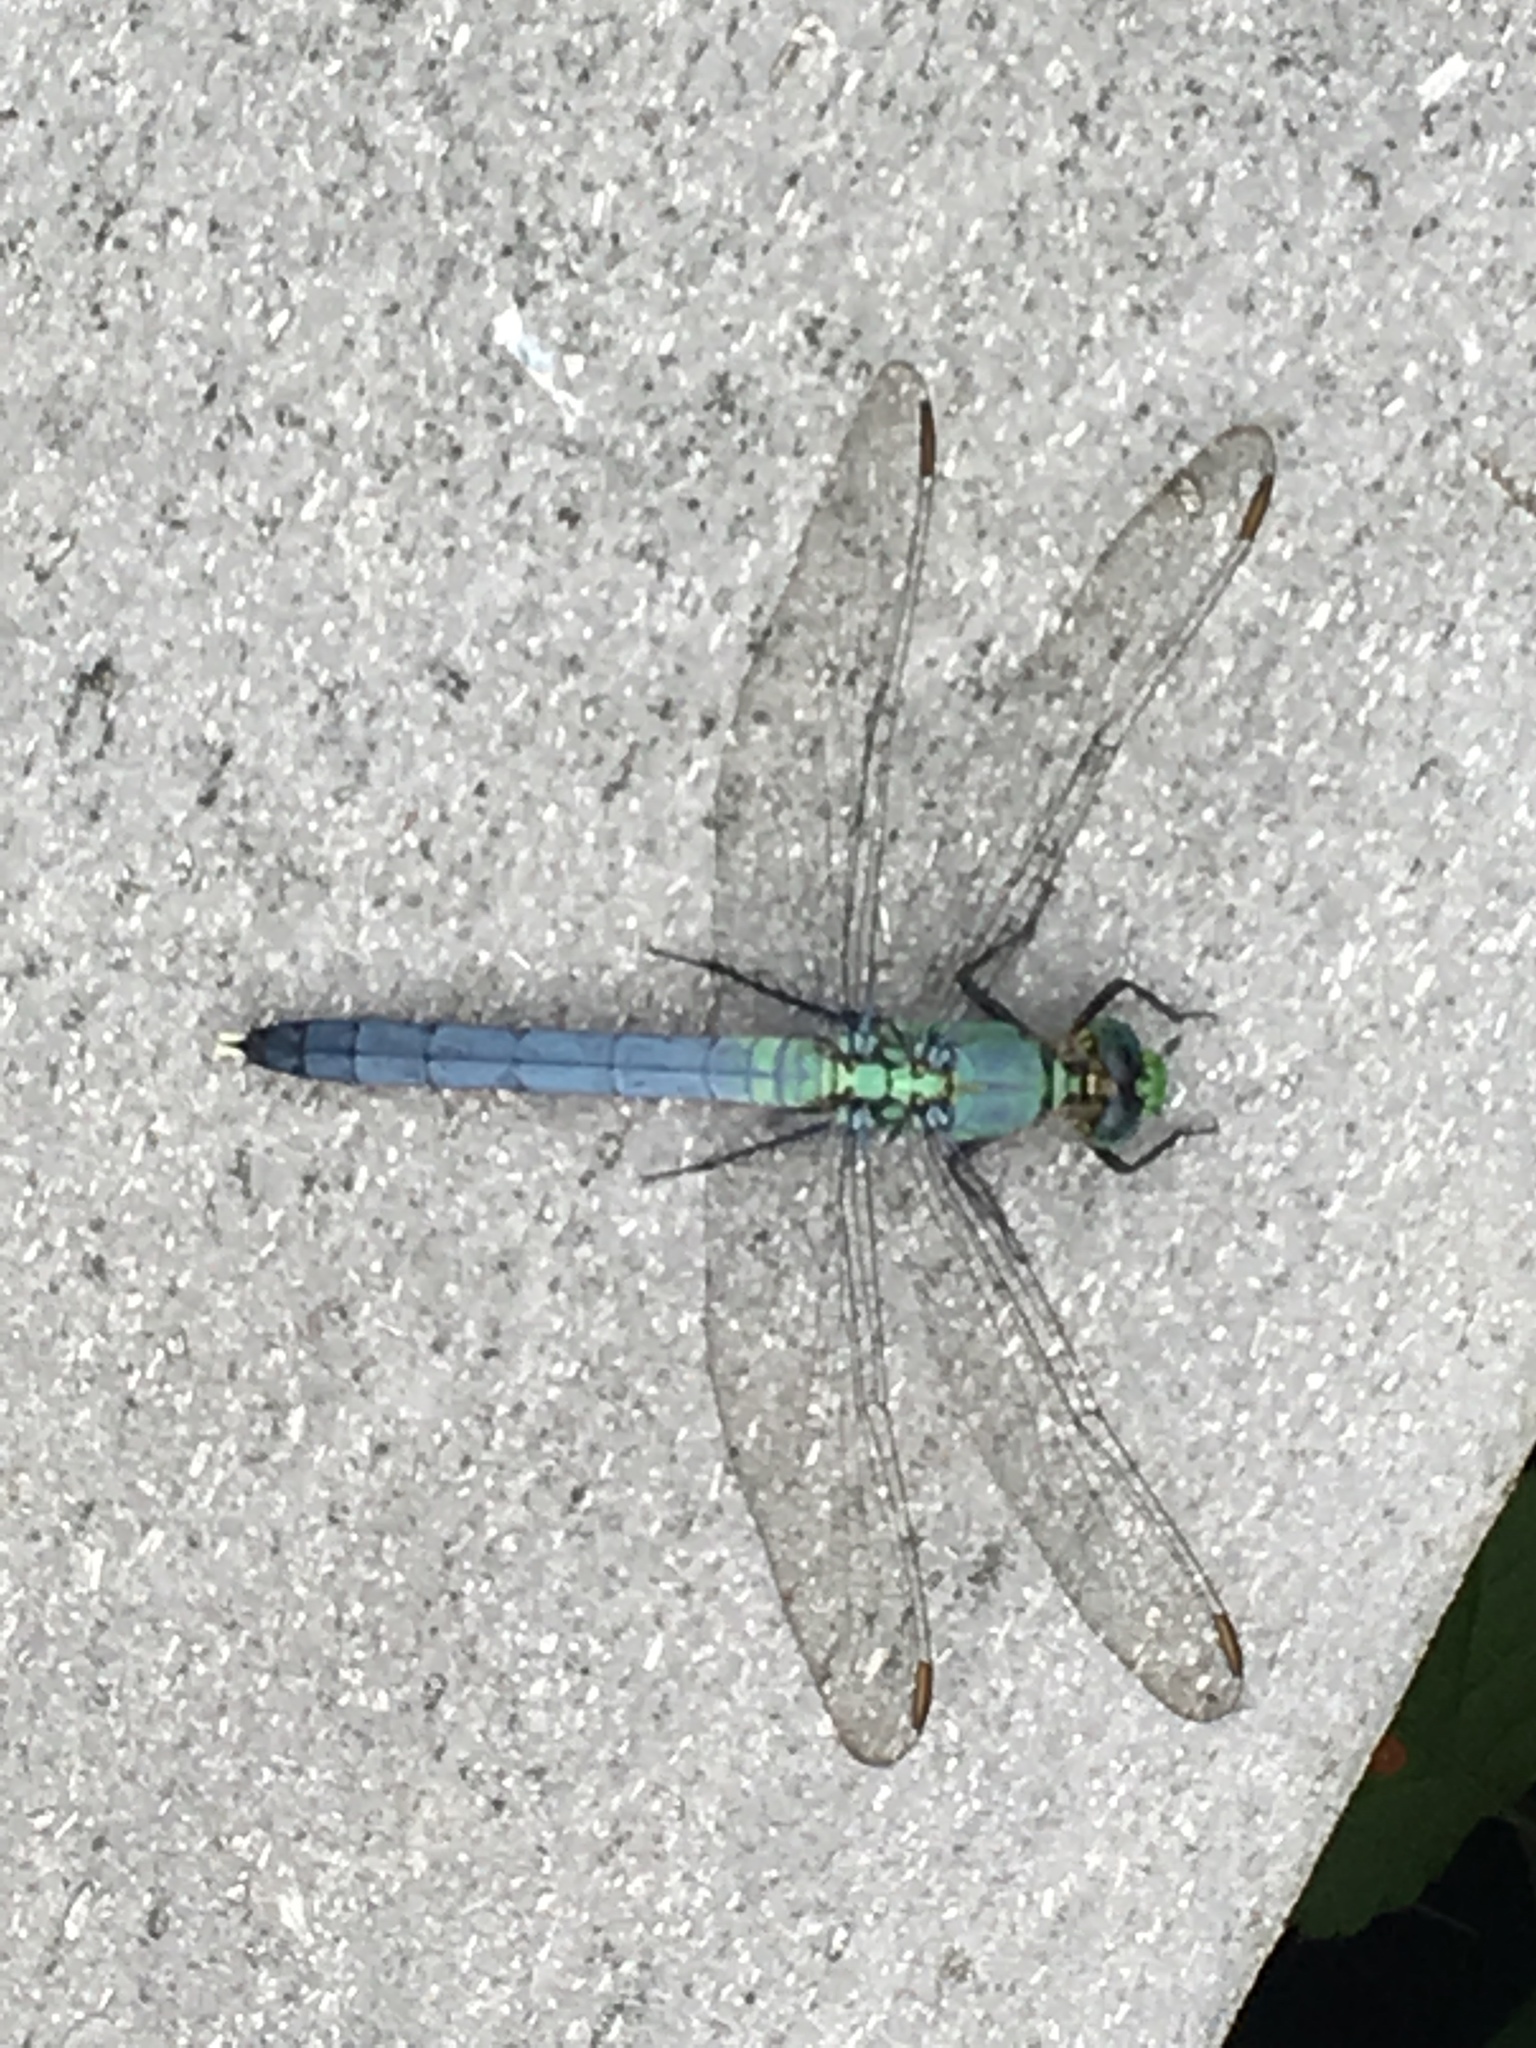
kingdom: Animalia
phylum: Arthropoda
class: Insecta
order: Odonata
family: Libellulidae
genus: Erythemis
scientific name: Erythemis simplicicollis
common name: Eastern pondhawk
